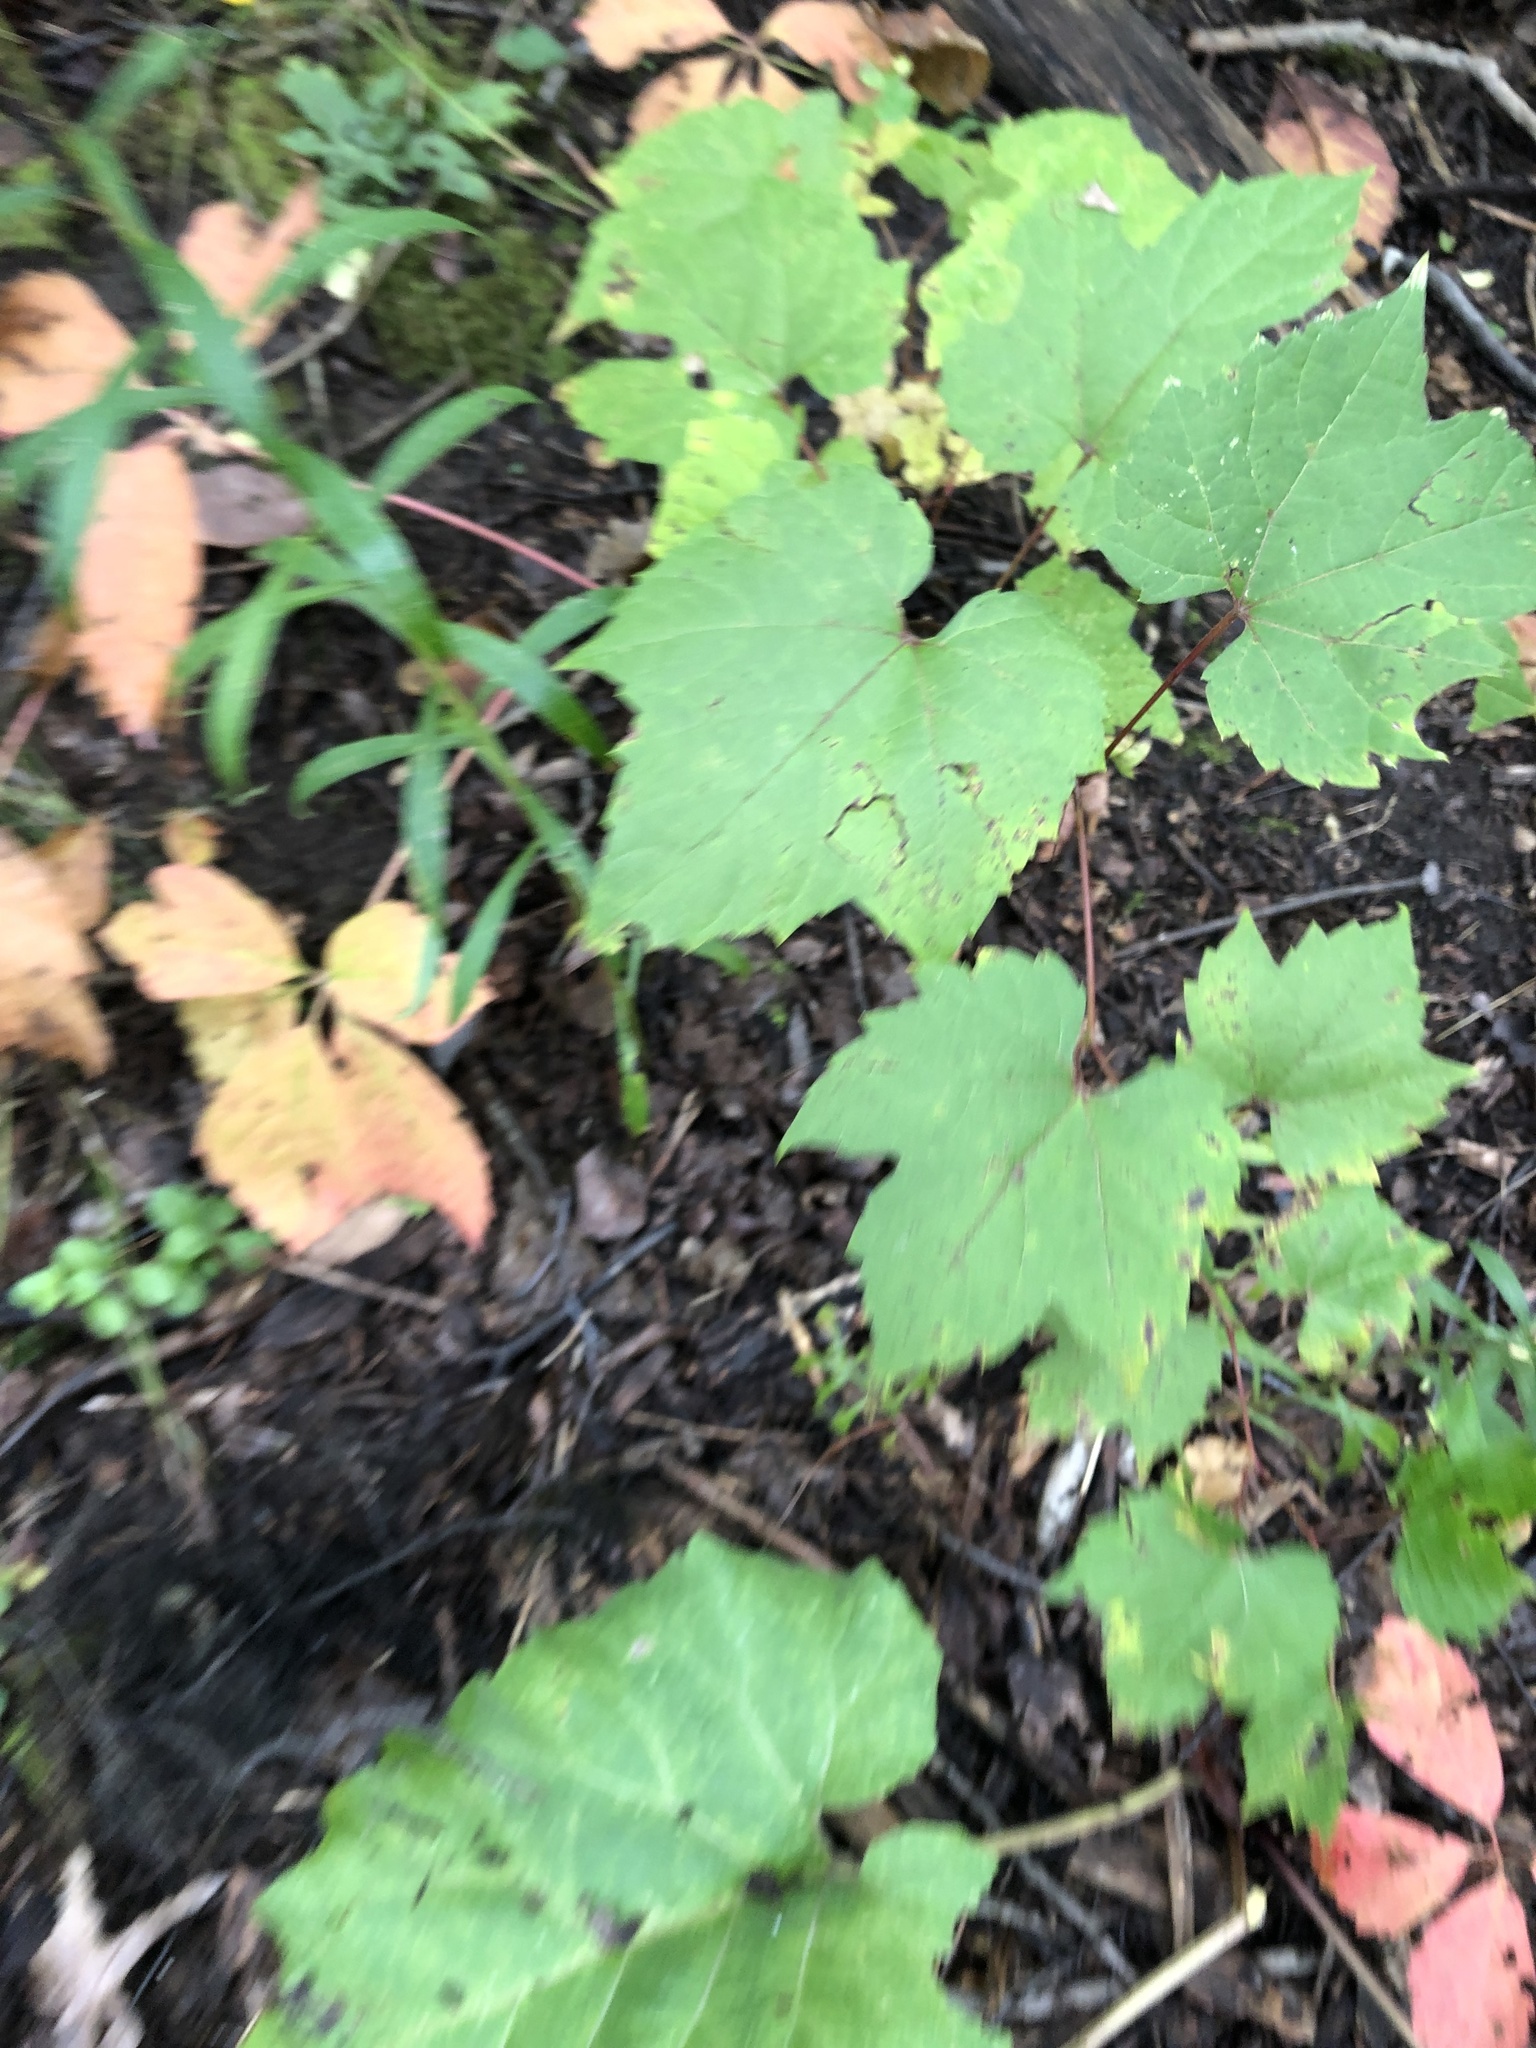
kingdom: Plantae
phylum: Tracheophyta
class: Magnoliopsida
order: Vitales
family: Vitaceae
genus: Vitis
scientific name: Vitis riparia
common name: Frost grape
